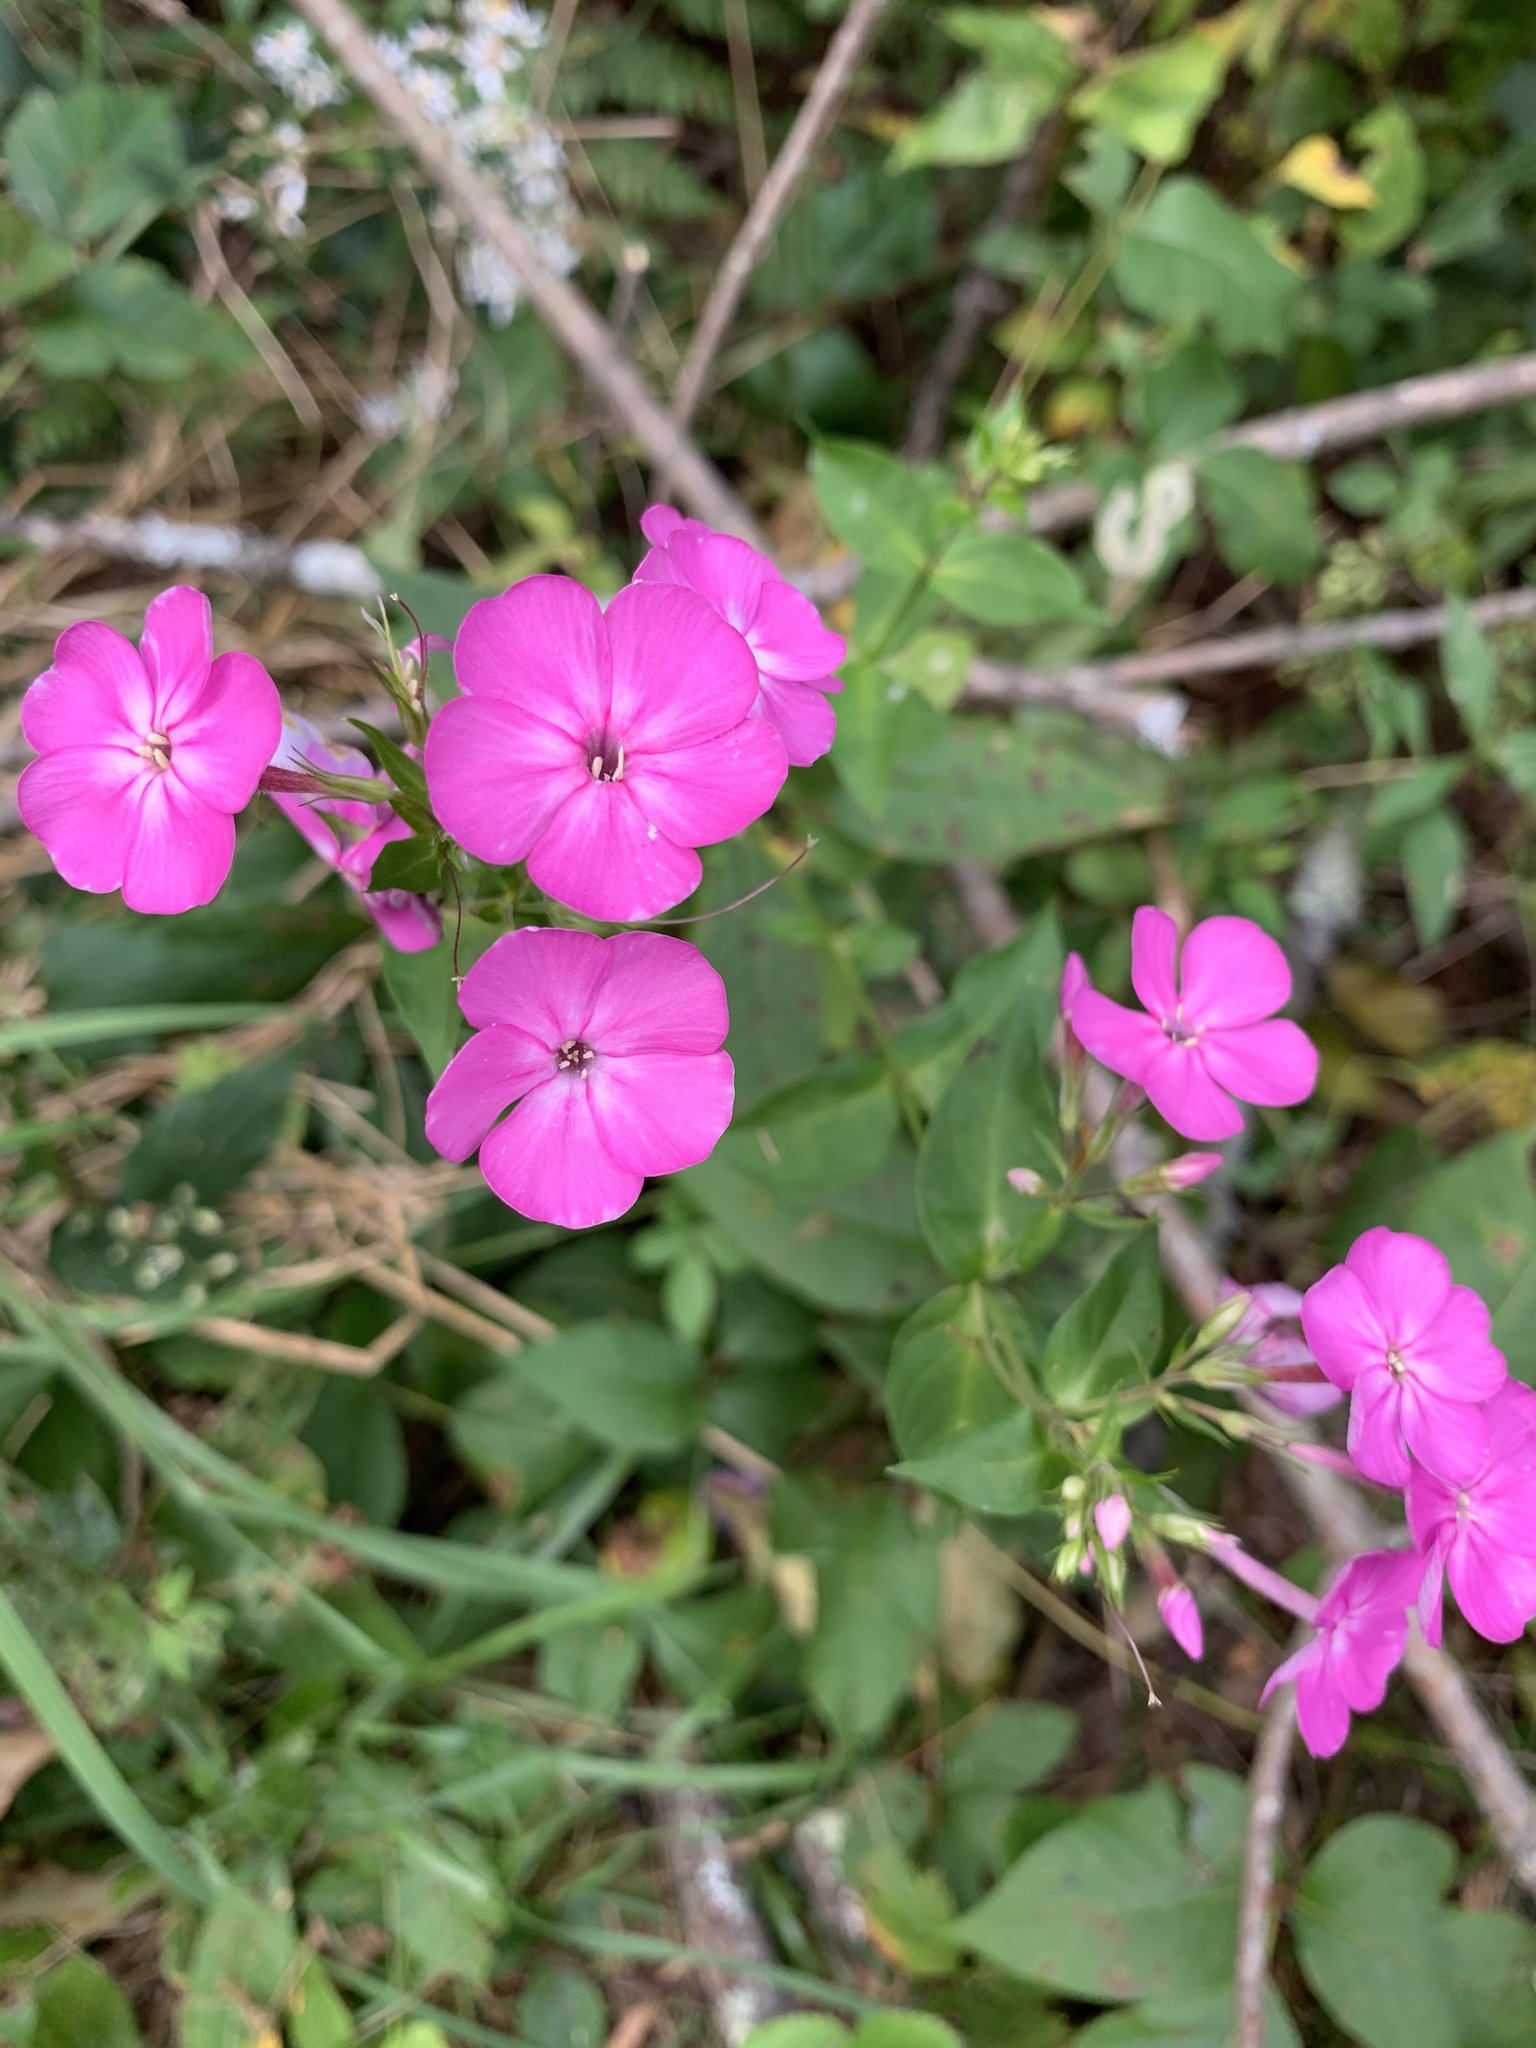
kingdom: Plantae
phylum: Tracheophyta
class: Magnoliopsida
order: Ericales
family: Polemoniaceae
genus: Phlox
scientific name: Phlox paniculata
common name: Fall phlox
